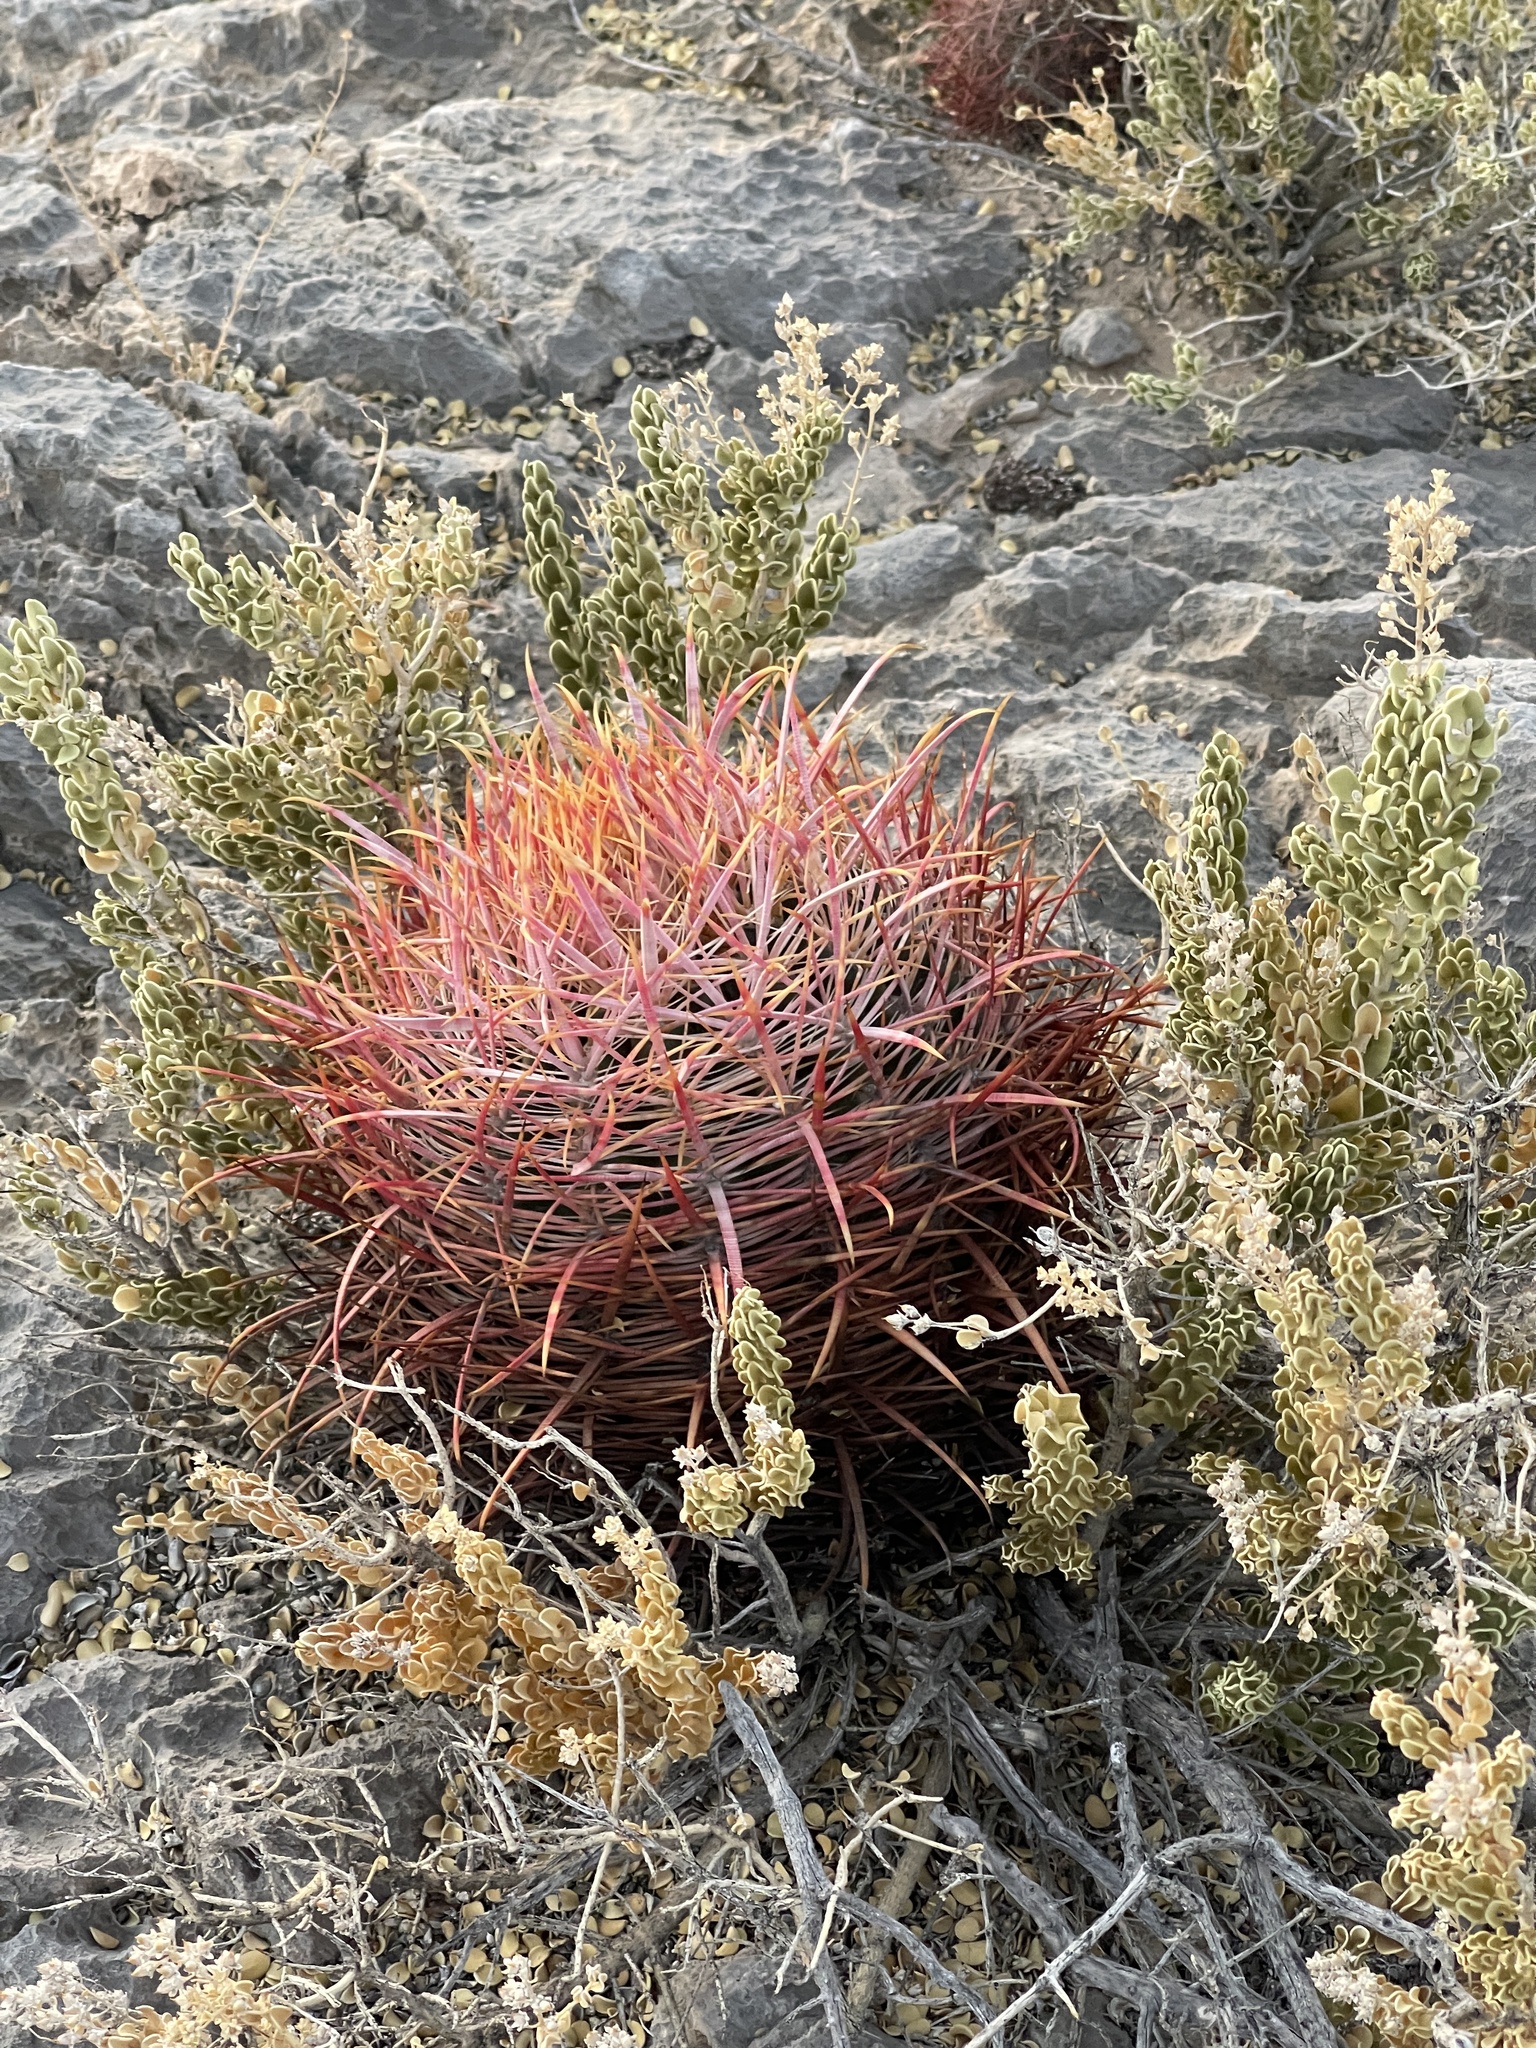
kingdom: Plantae
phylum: Tracheophyta
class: Magnoliopsida
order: Caryophyllales
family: Cactaceae
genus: Ferocactus
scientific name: Ferocactus cylindraceus
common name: California barrel cactus
